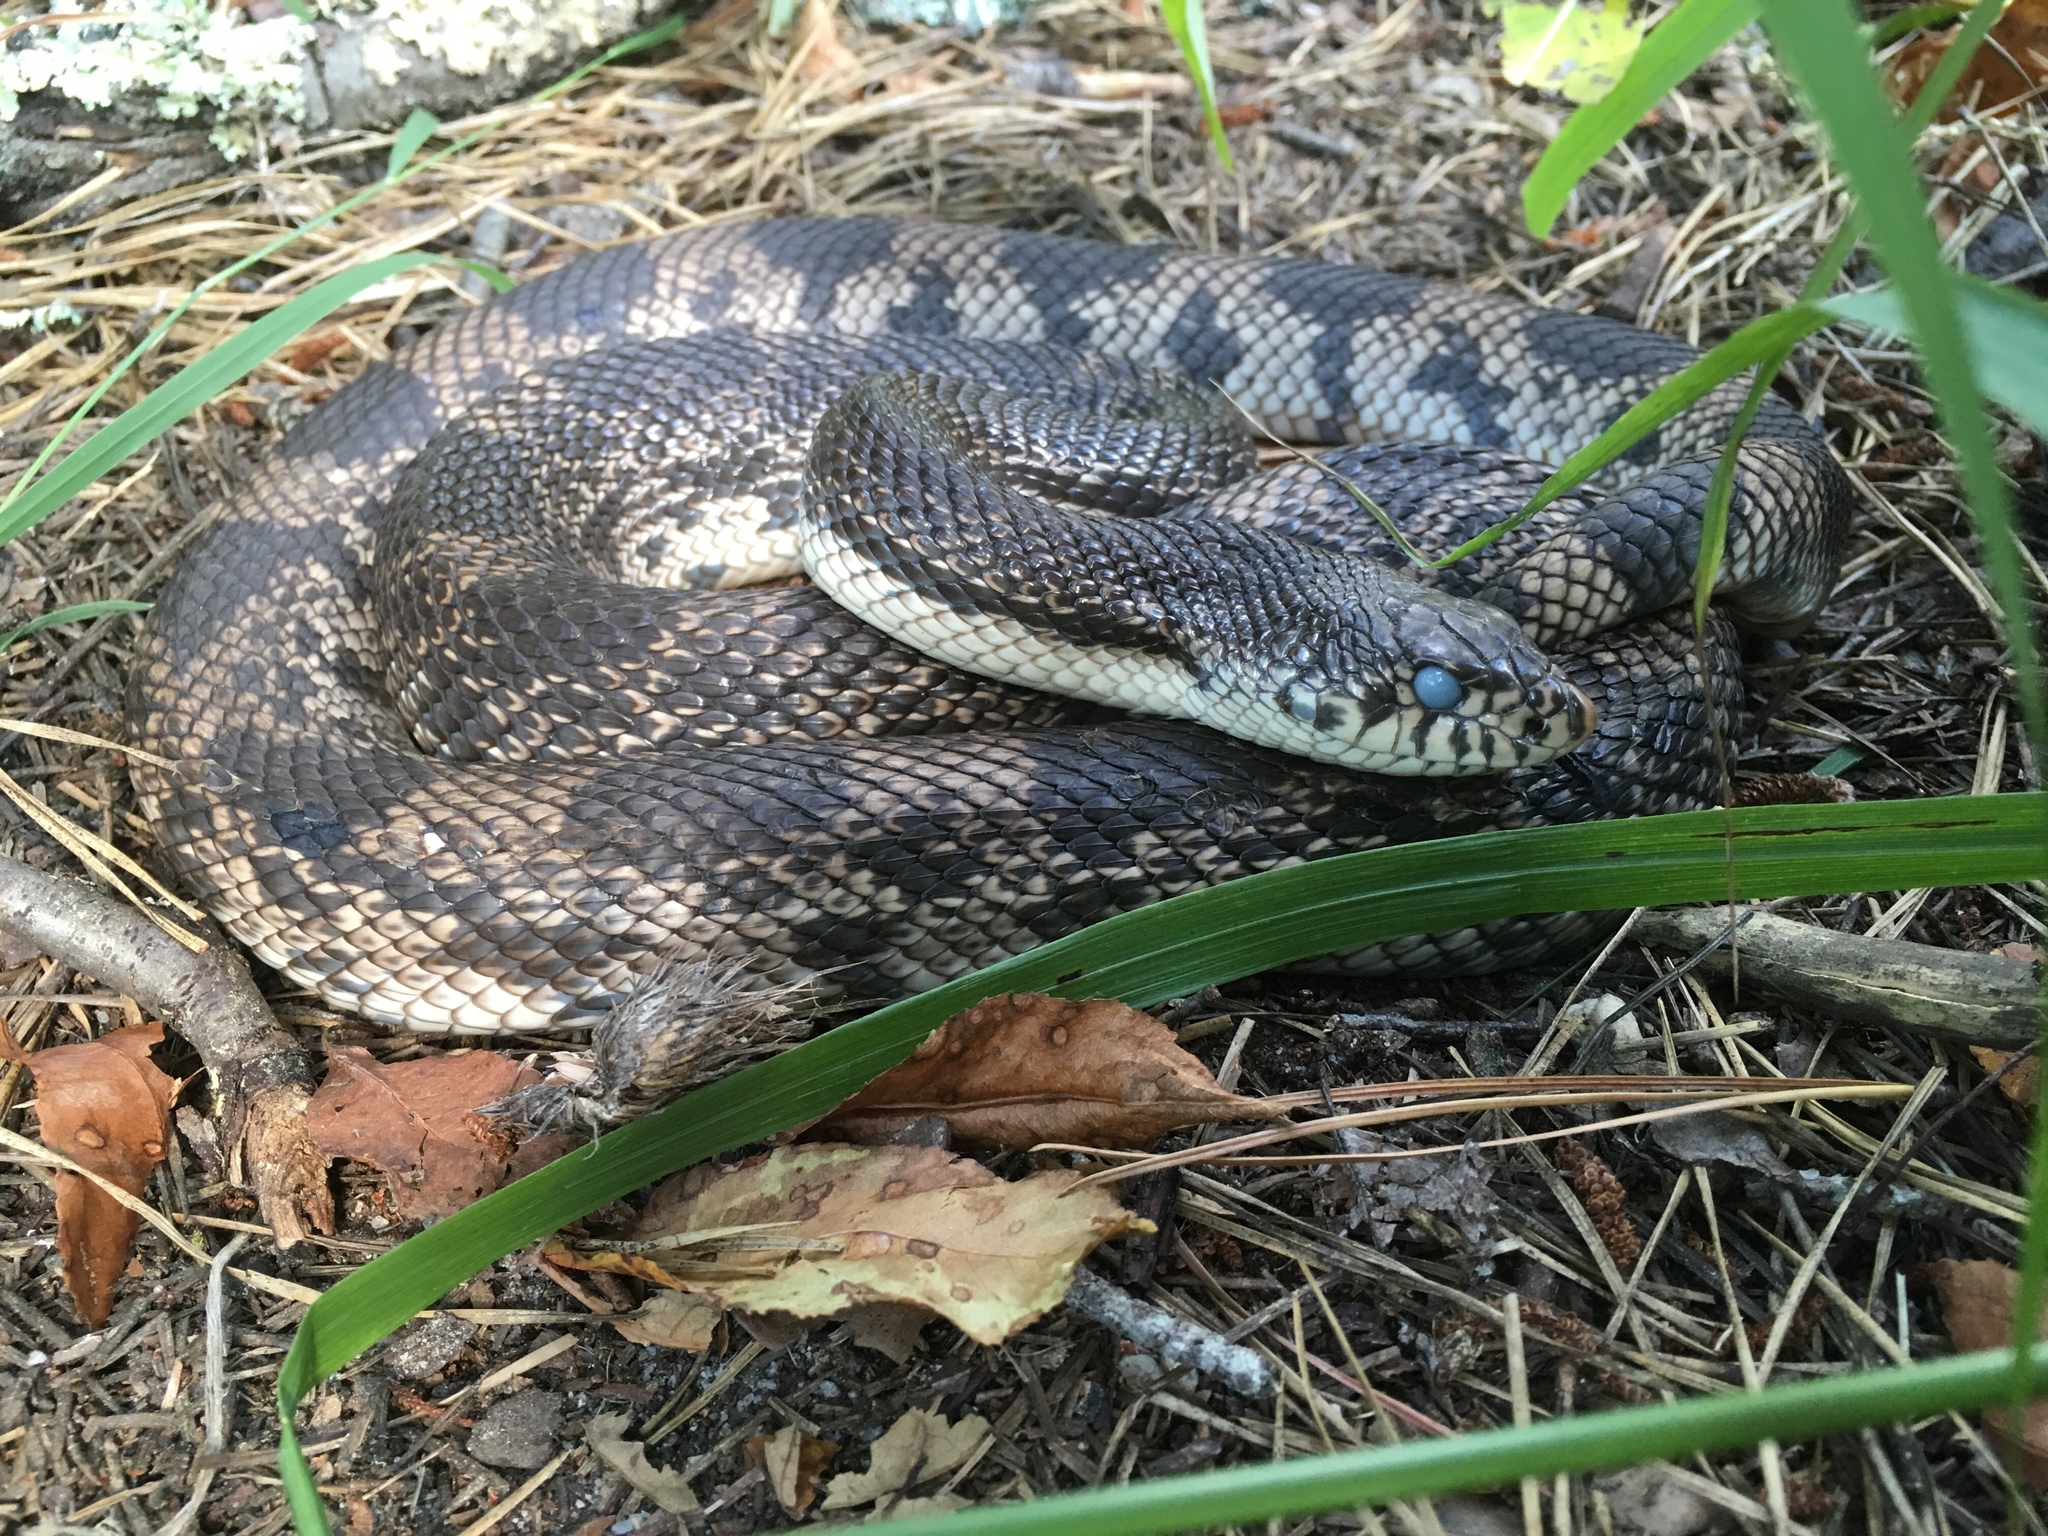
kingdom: Animalia
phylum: Chordata
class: Squamata
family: Colubridae
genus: Pituophis
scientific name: Pituophis melanoleucus
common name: Pine snake
